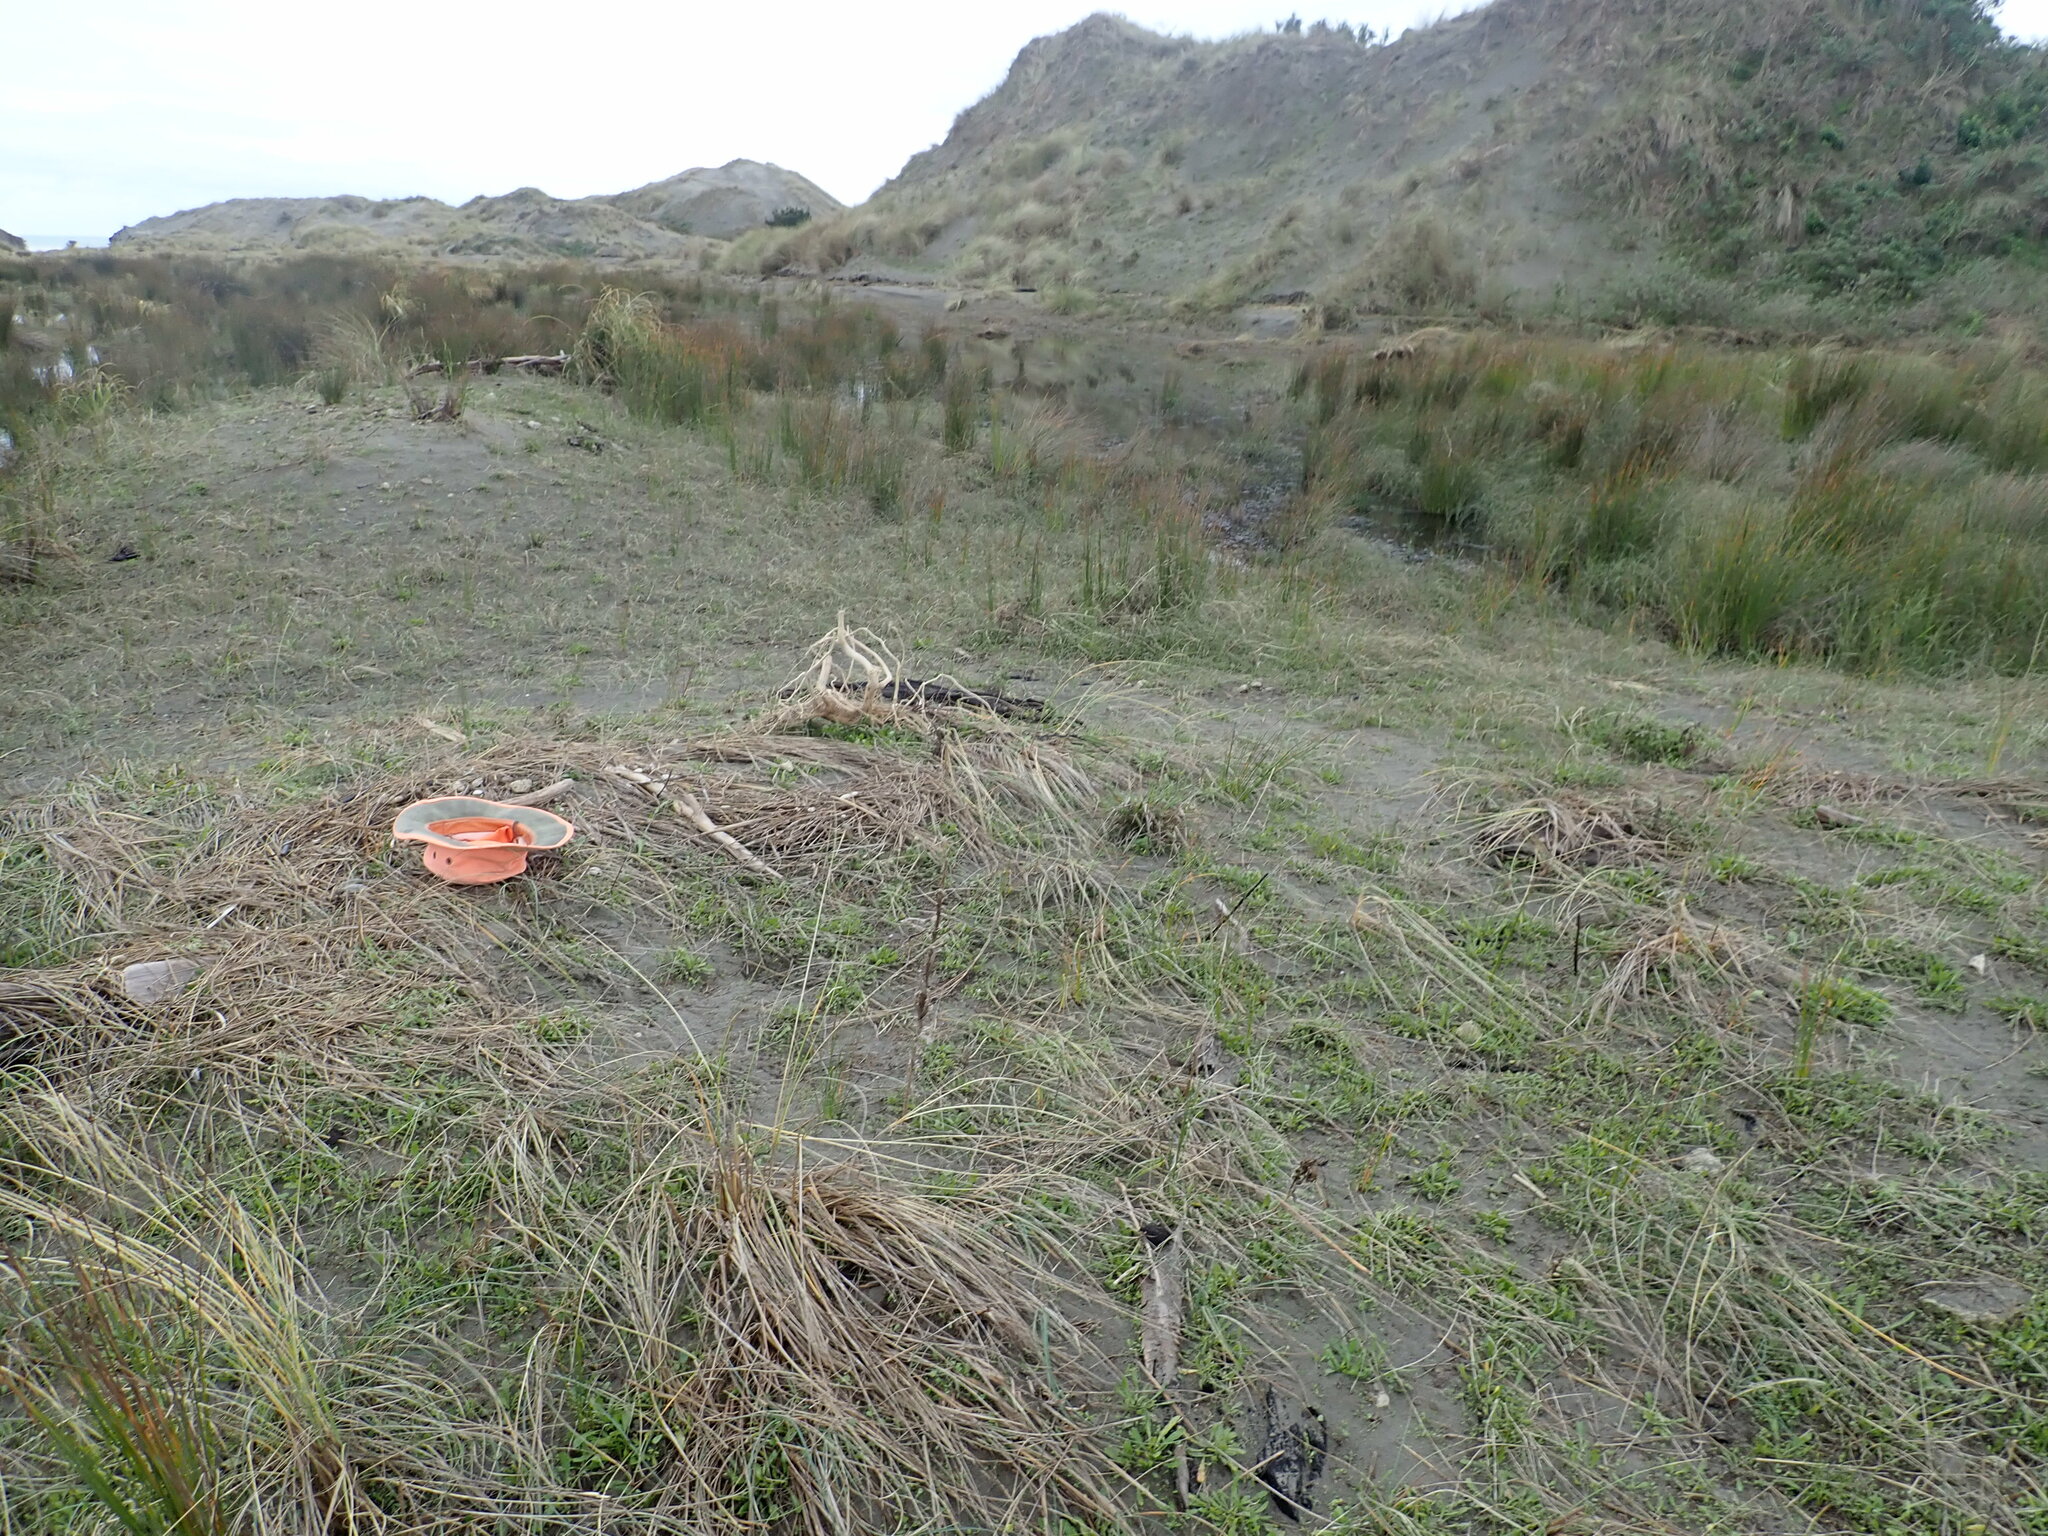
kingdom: Animalia
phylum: Cnidaria
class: Hydrozoa
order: Siphonophorae
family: Physaliidae
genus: Physalia
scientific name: Physalia physalis
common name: Portuguese man-of-war
